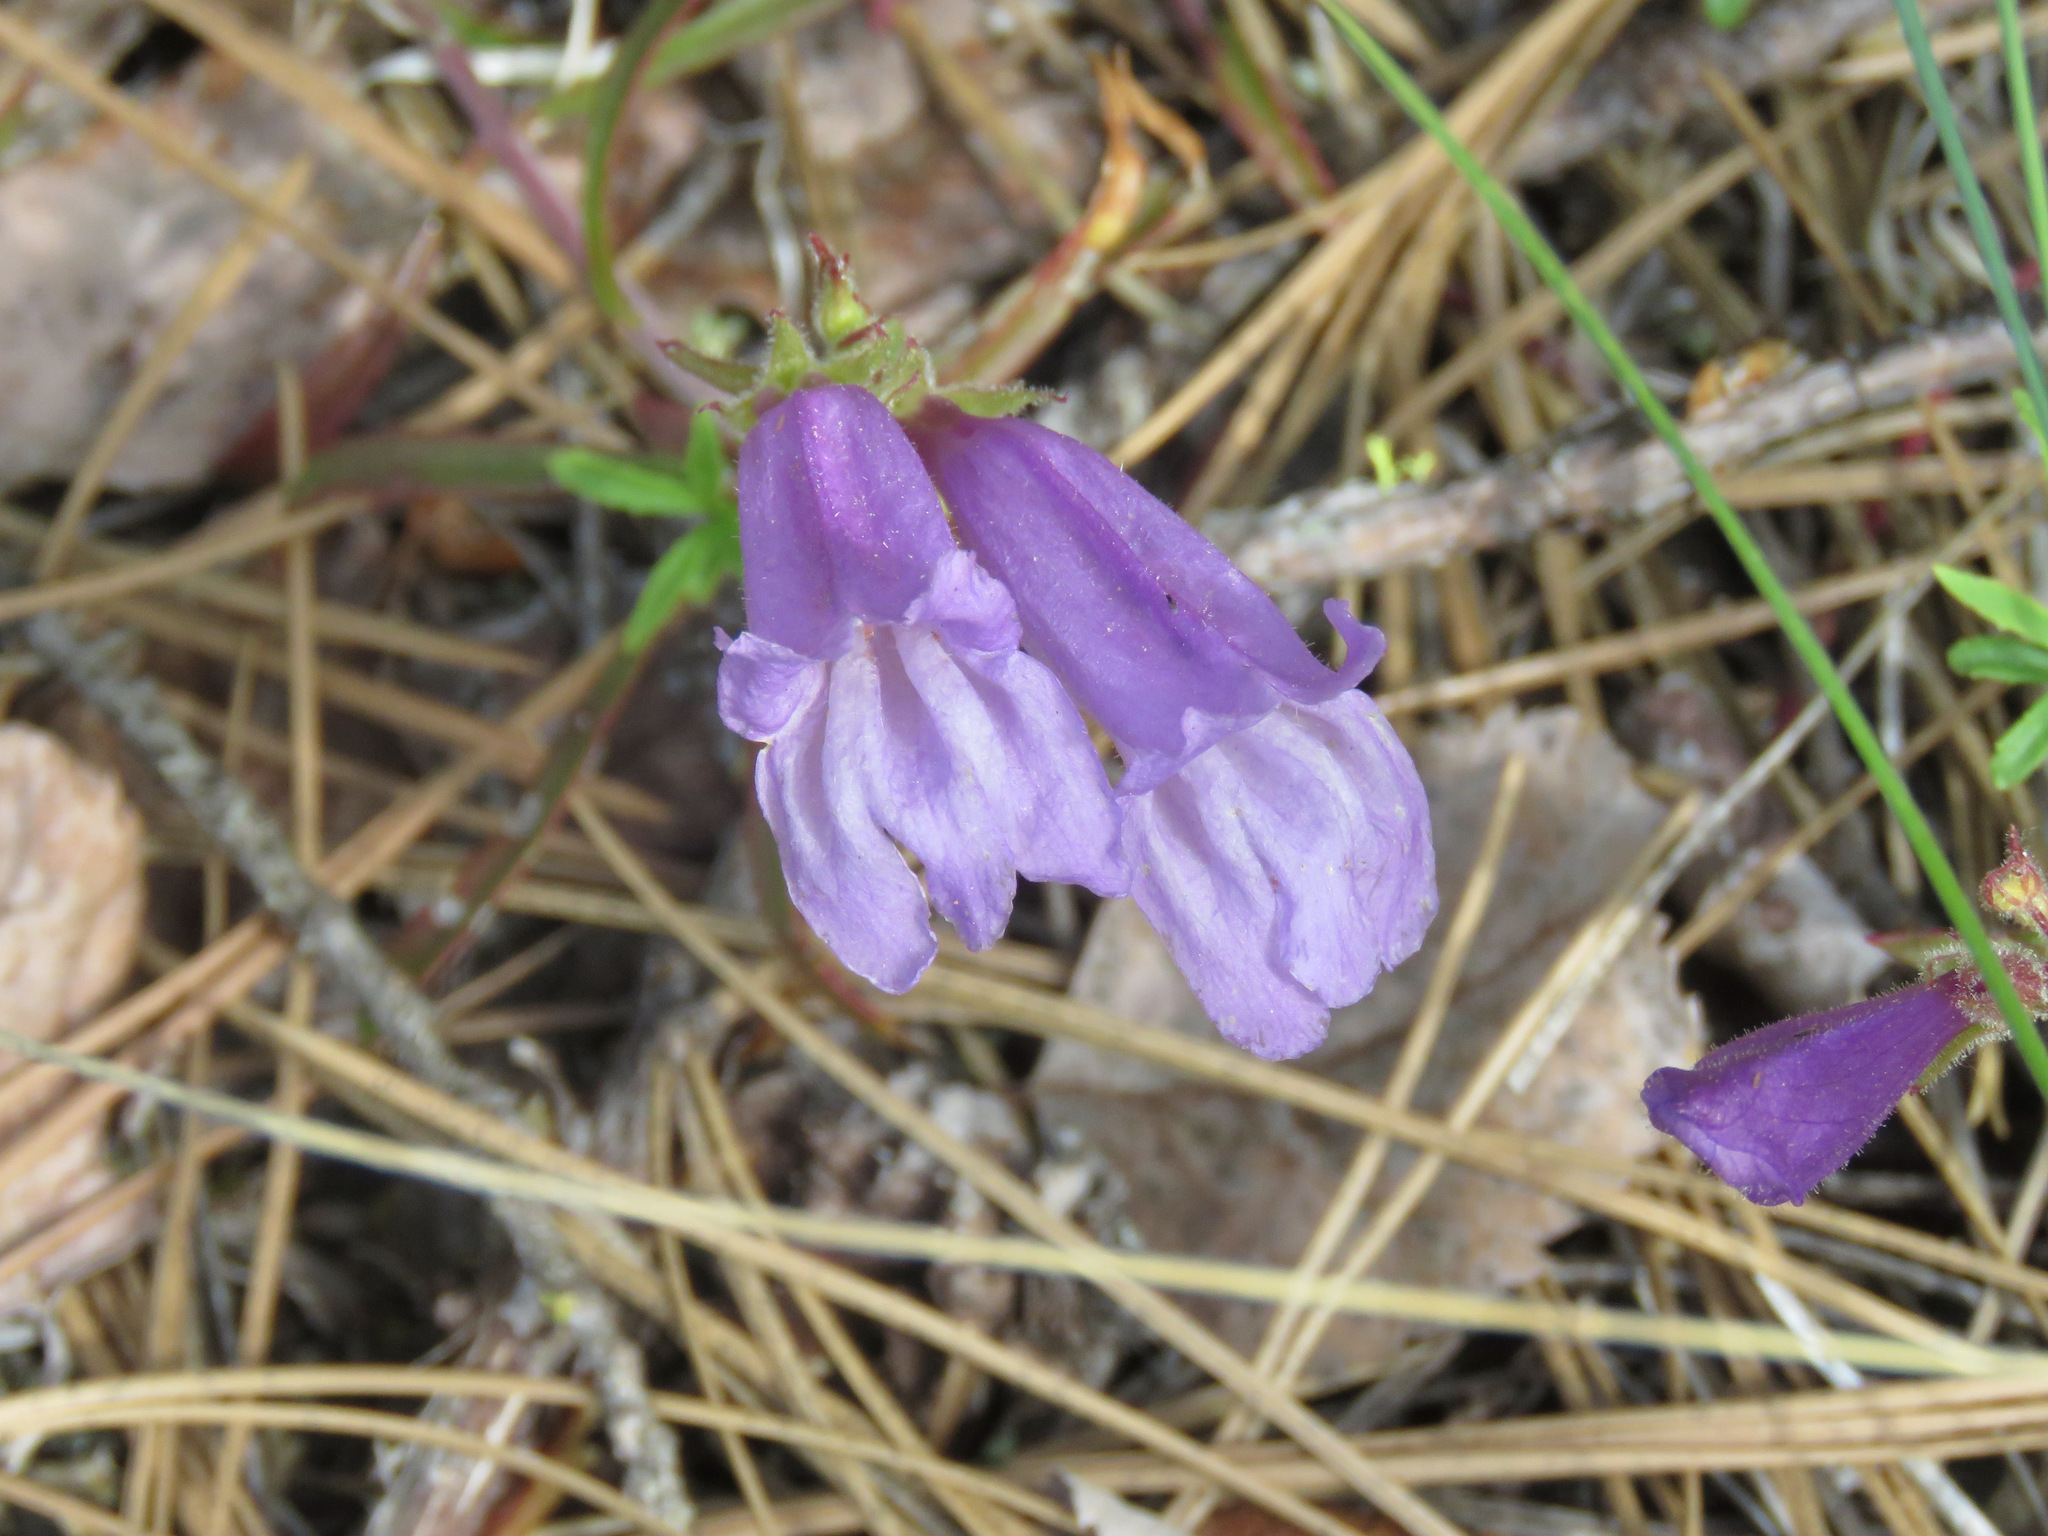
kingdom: Plantae
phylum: Tracheophyta
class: Magnoliopsida
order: Lamiales
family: Plantaginaceae
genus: Penstemon
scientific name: Penstemon fruticosus
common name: Bush penstemon
